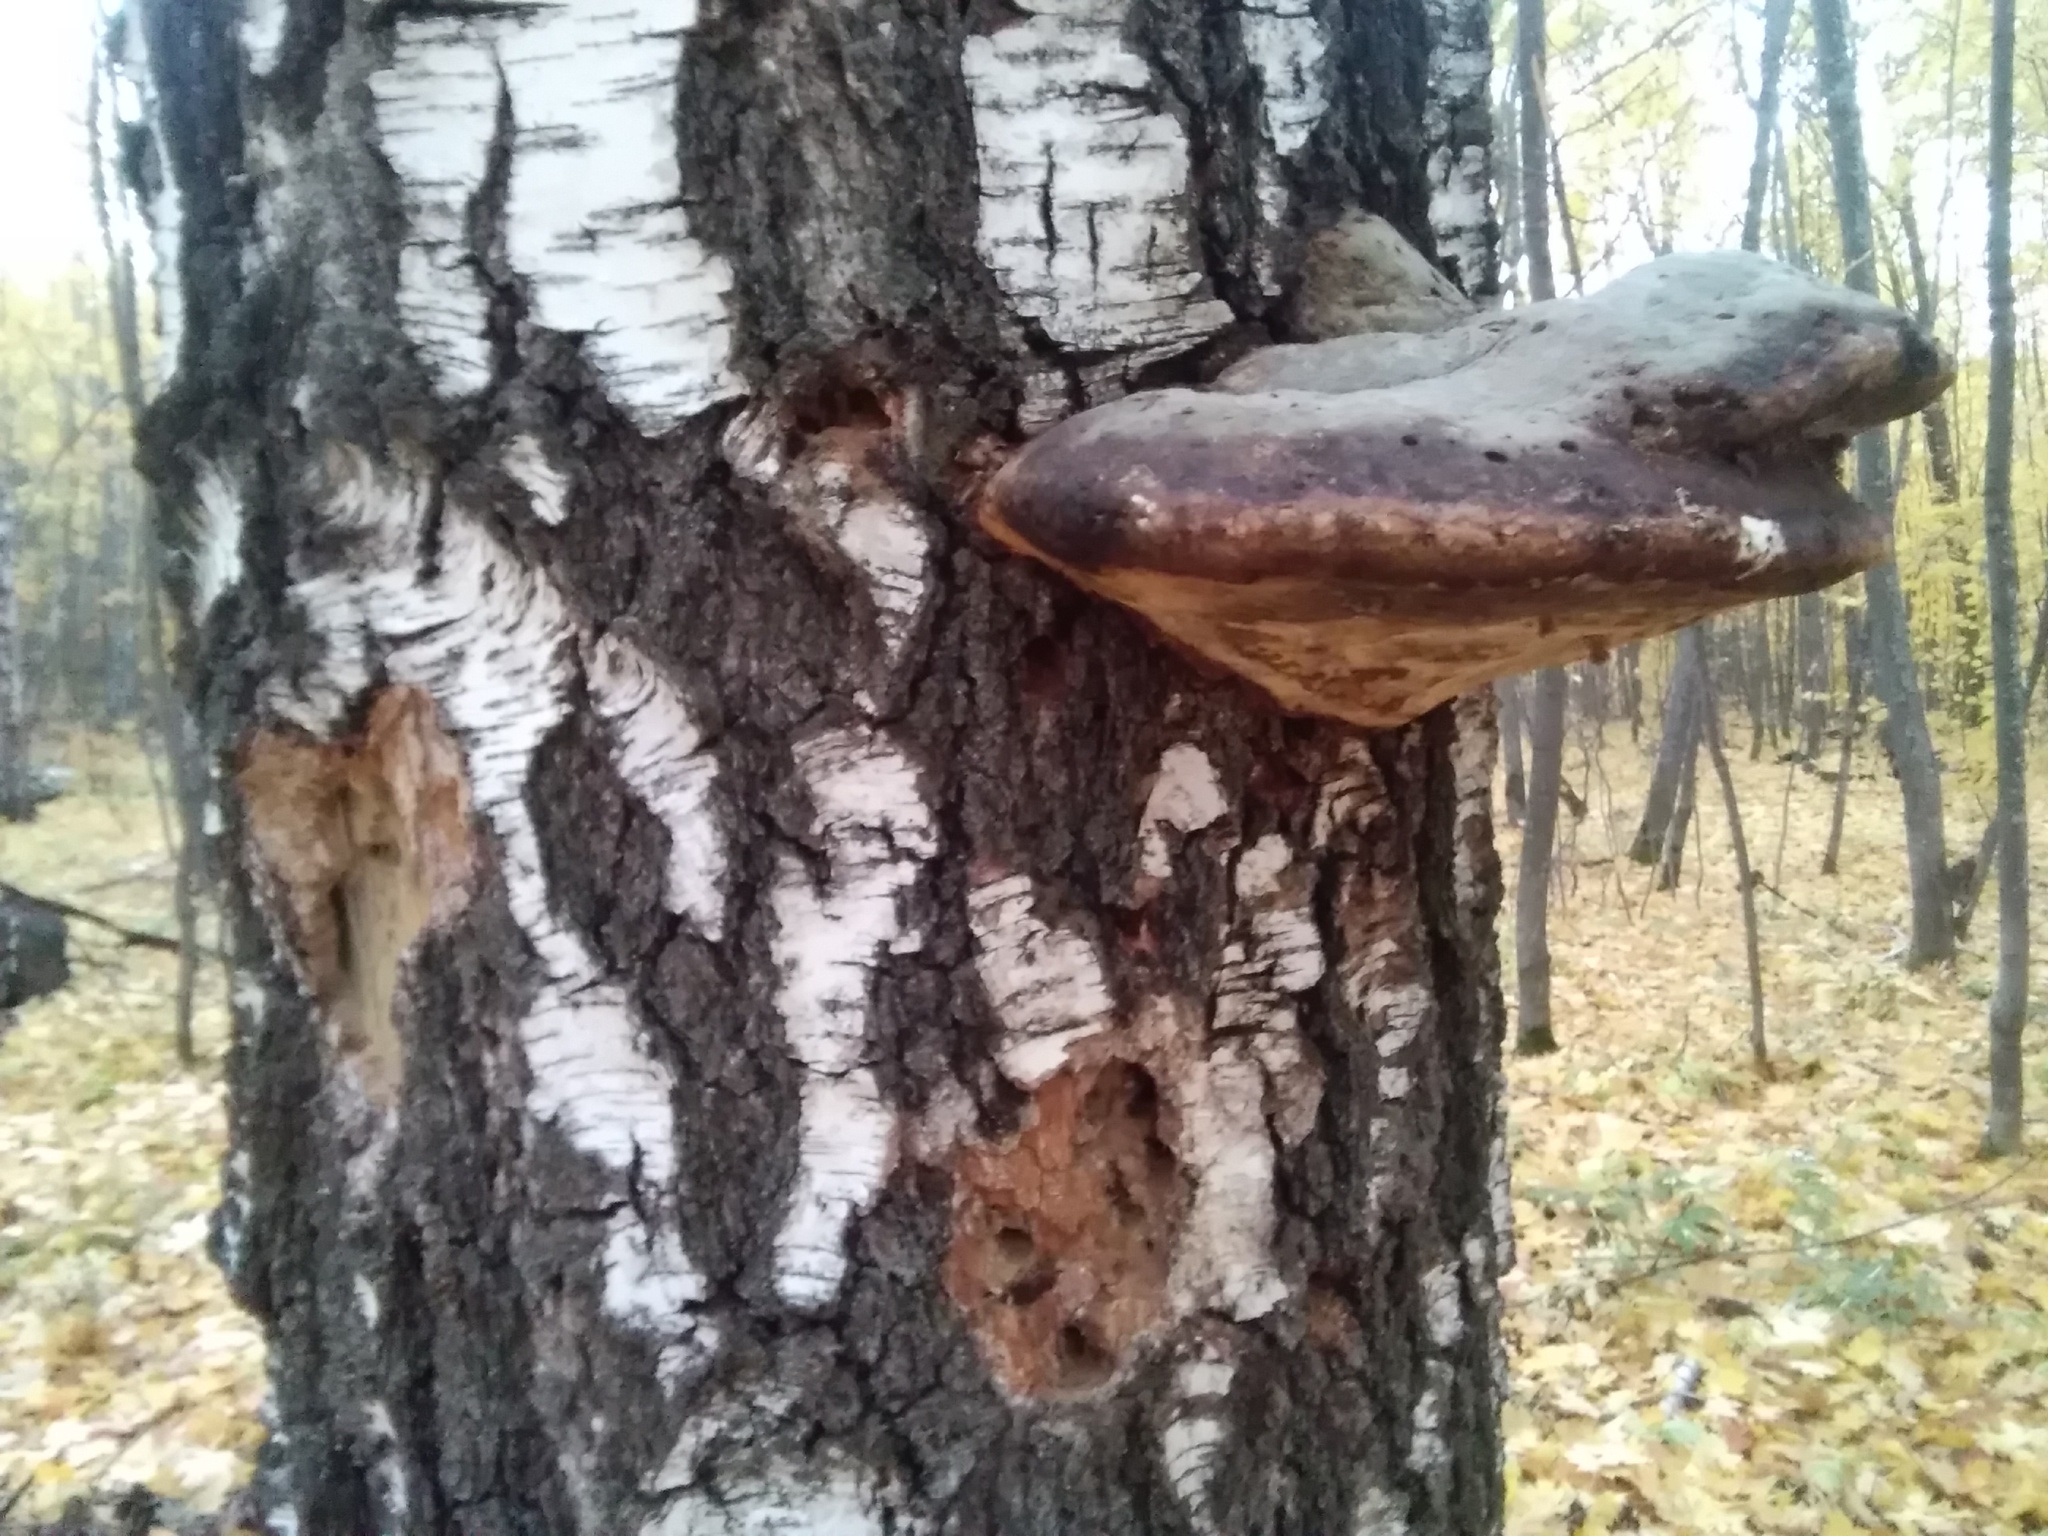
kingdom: Fungi
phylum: Basidiomycota
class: Agaricomycetes
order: Polyporales
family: Fomitopsidaceae
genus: Fomitopsis
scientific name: Fomitopsis pinicola
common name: Red-belted bracket
